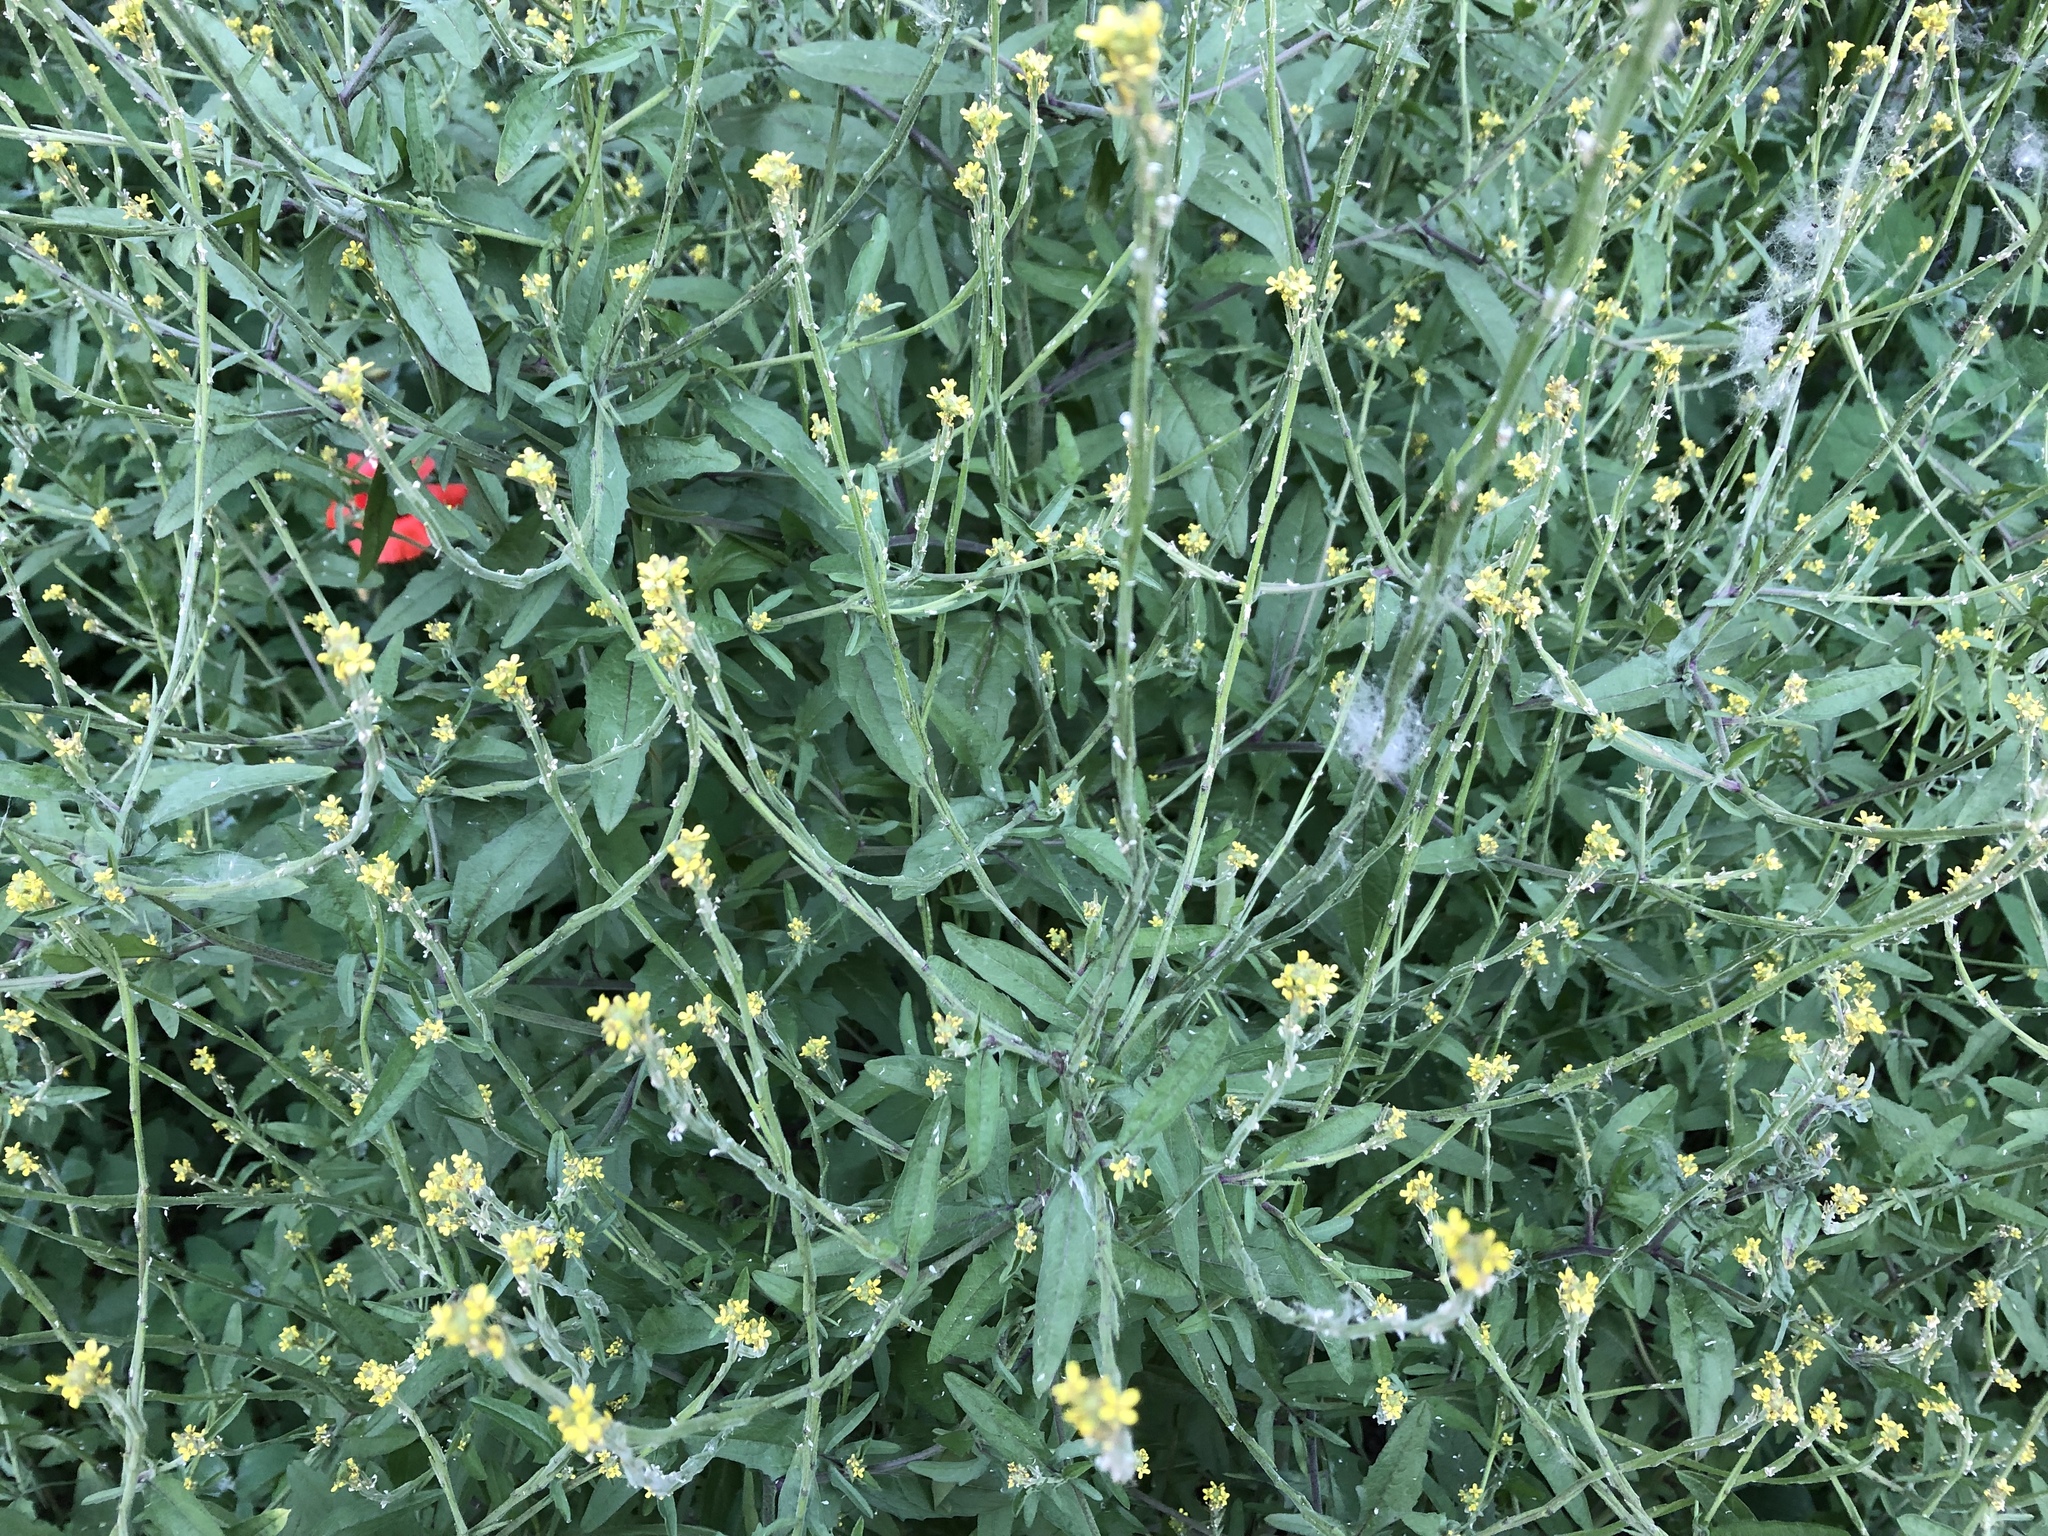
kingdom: Plantae
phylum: Tracheophyta
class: Magnoliopsida
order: Brassicales
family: Brassicaceae
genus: Sisymbrium
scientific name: Sisymbrium officinale
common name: Hedge mustard
